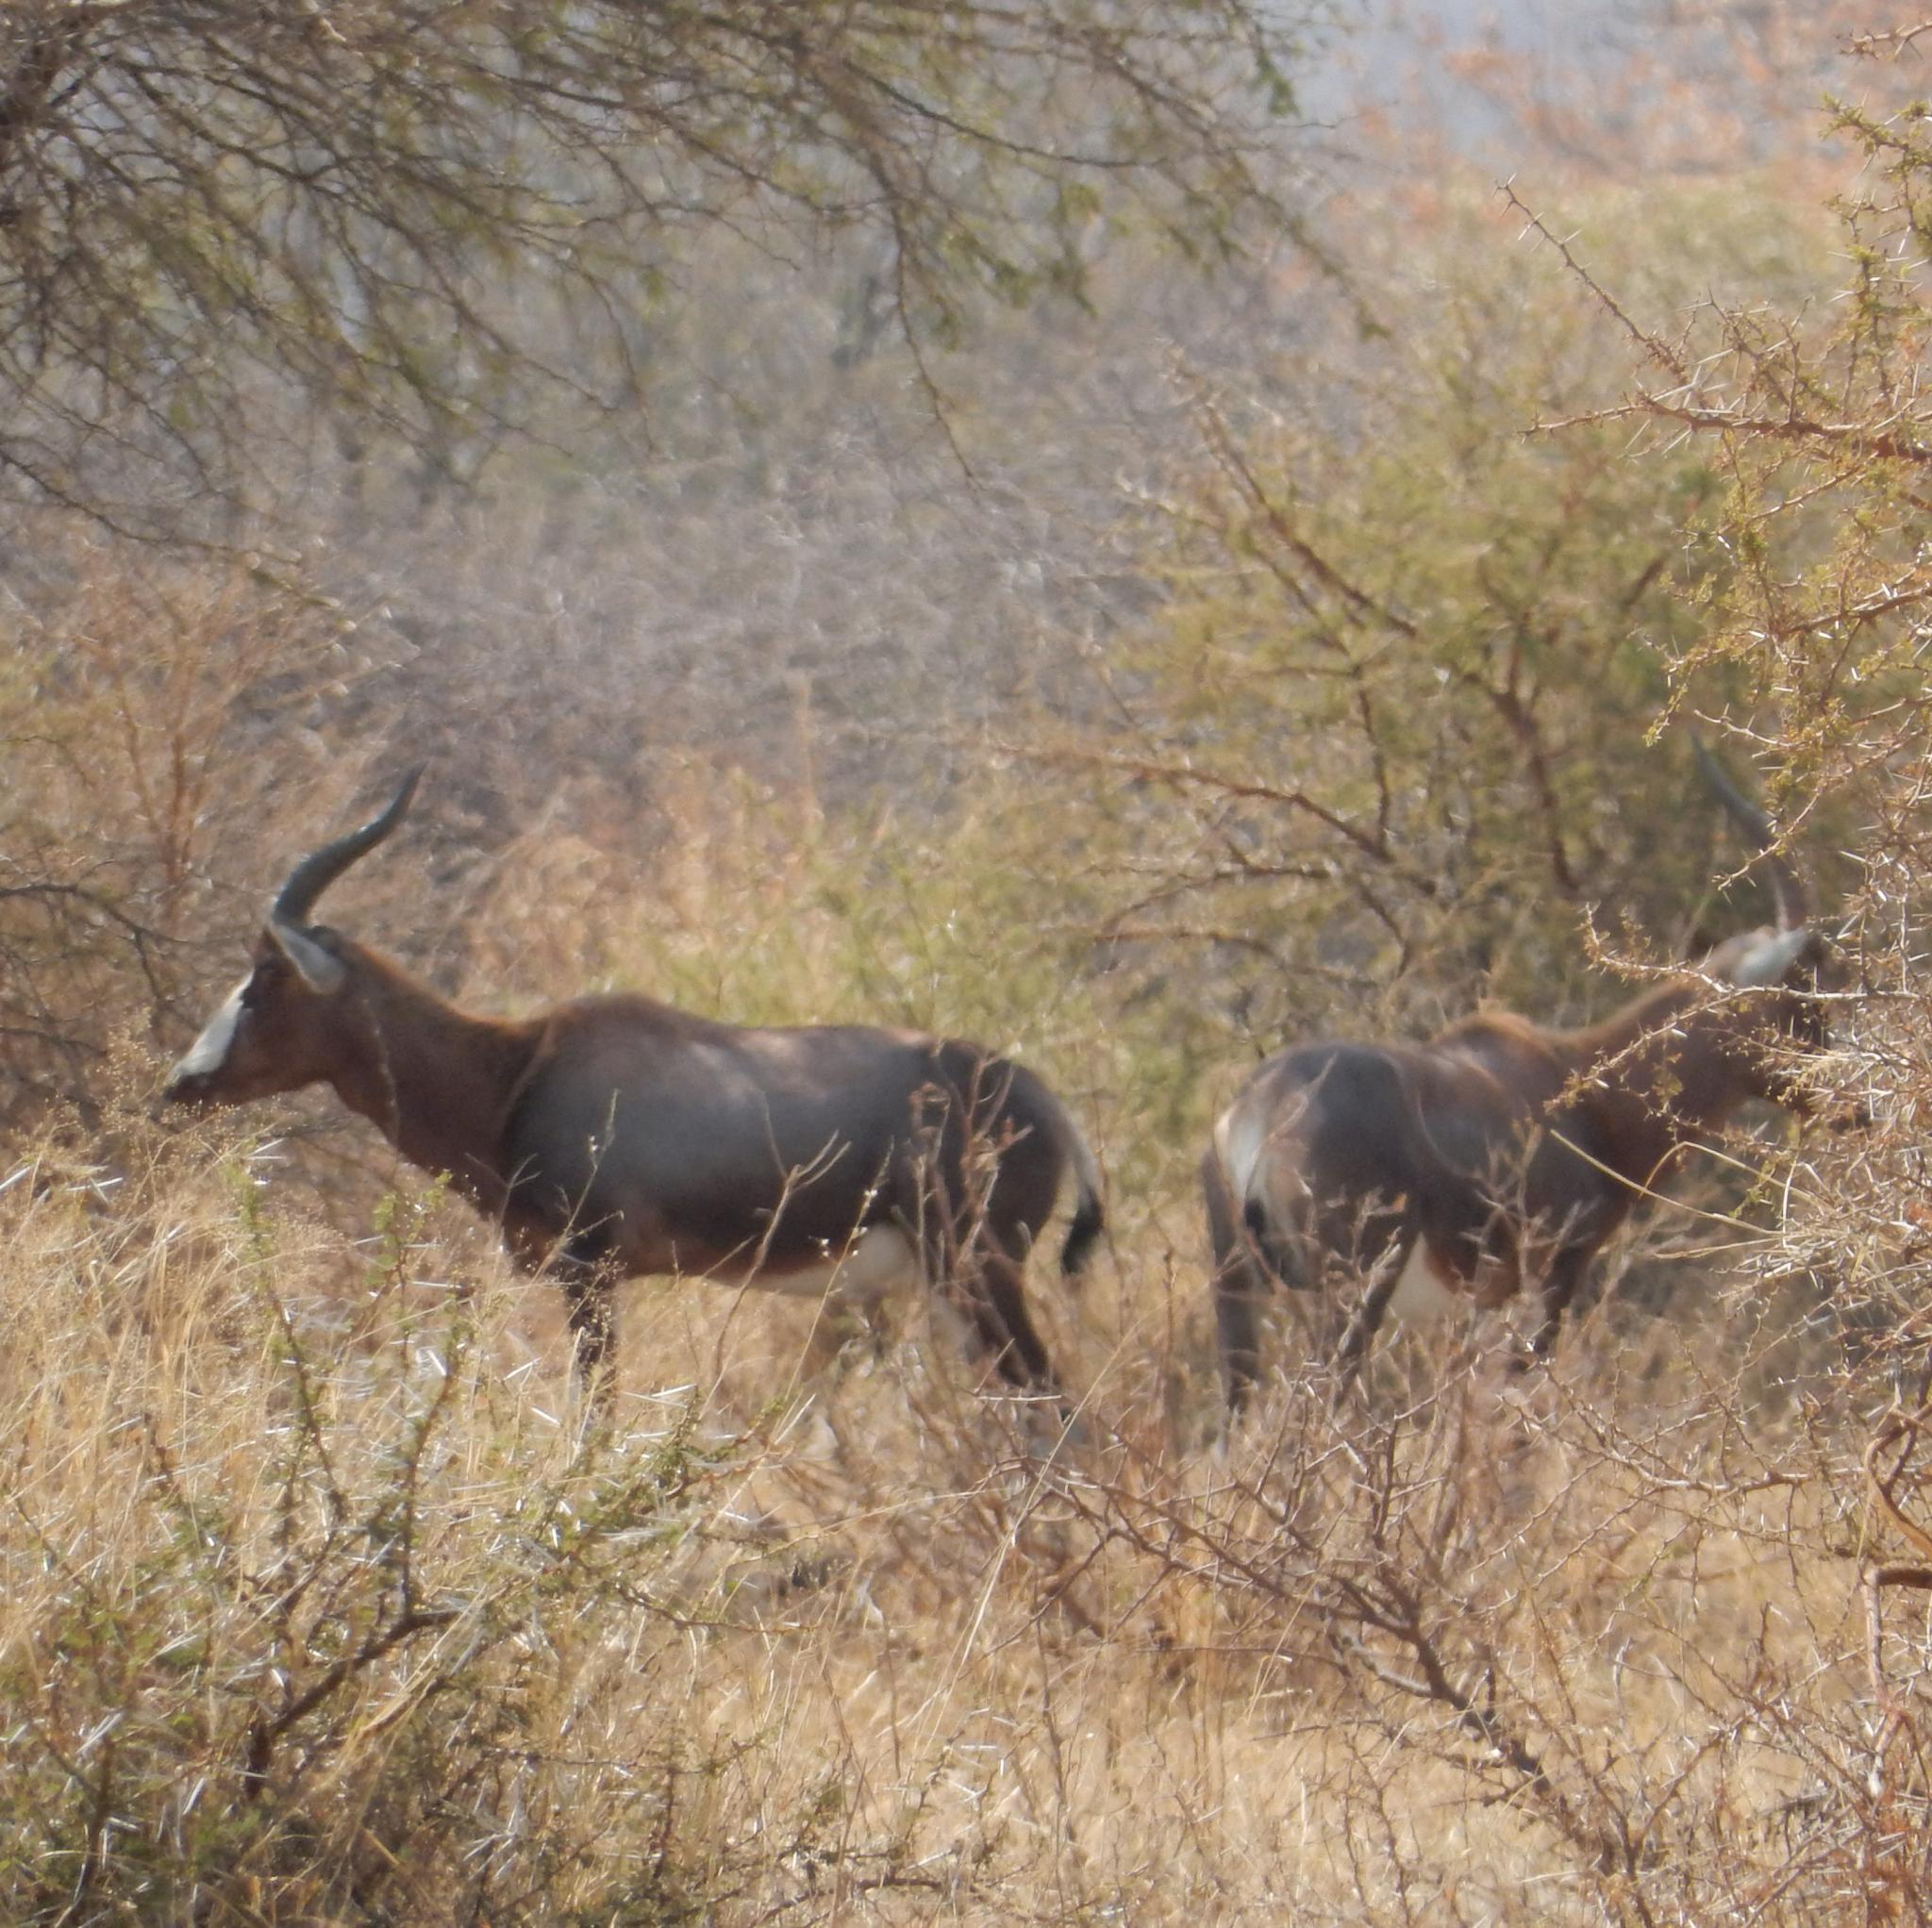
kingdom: Animalia
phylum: Chordata
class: Mammalia
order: Artiodactyla
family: Bovidae
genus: Damaliscus
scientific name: Damaliscus pygargus
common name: Bontebok
